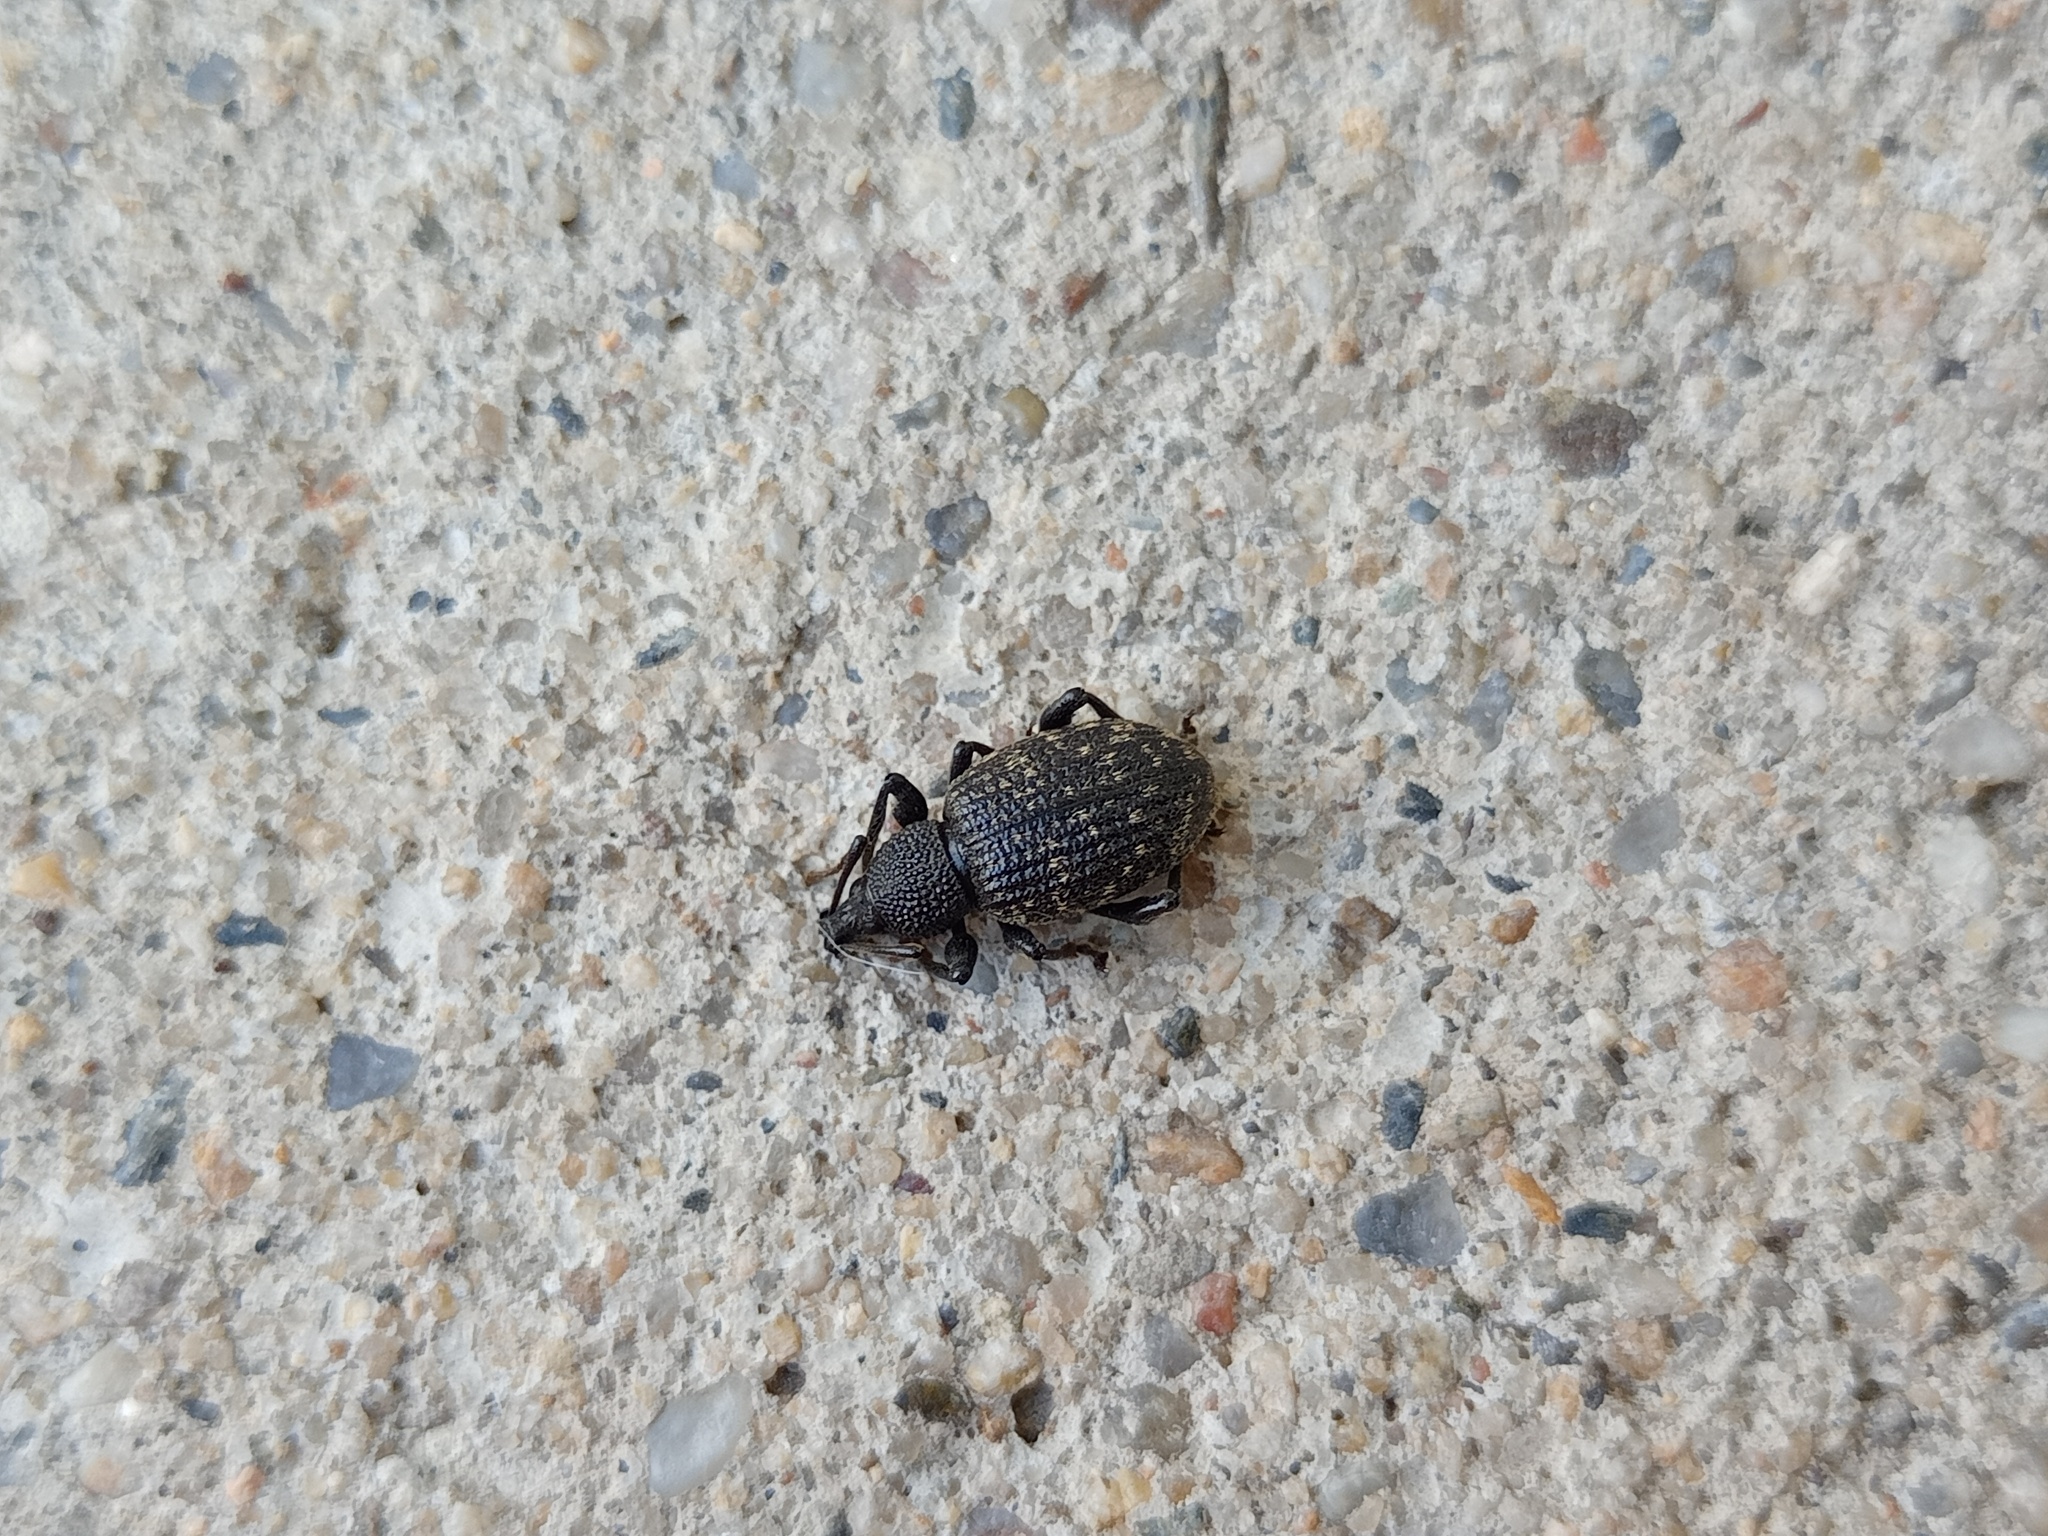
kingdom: Animalia
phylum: Arthropoda
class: Insecta
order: Coleoptera
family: Curculionidae
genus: Otiorhynchus
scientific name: Otiorhynchus sulcatus
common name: Black vine weevil
